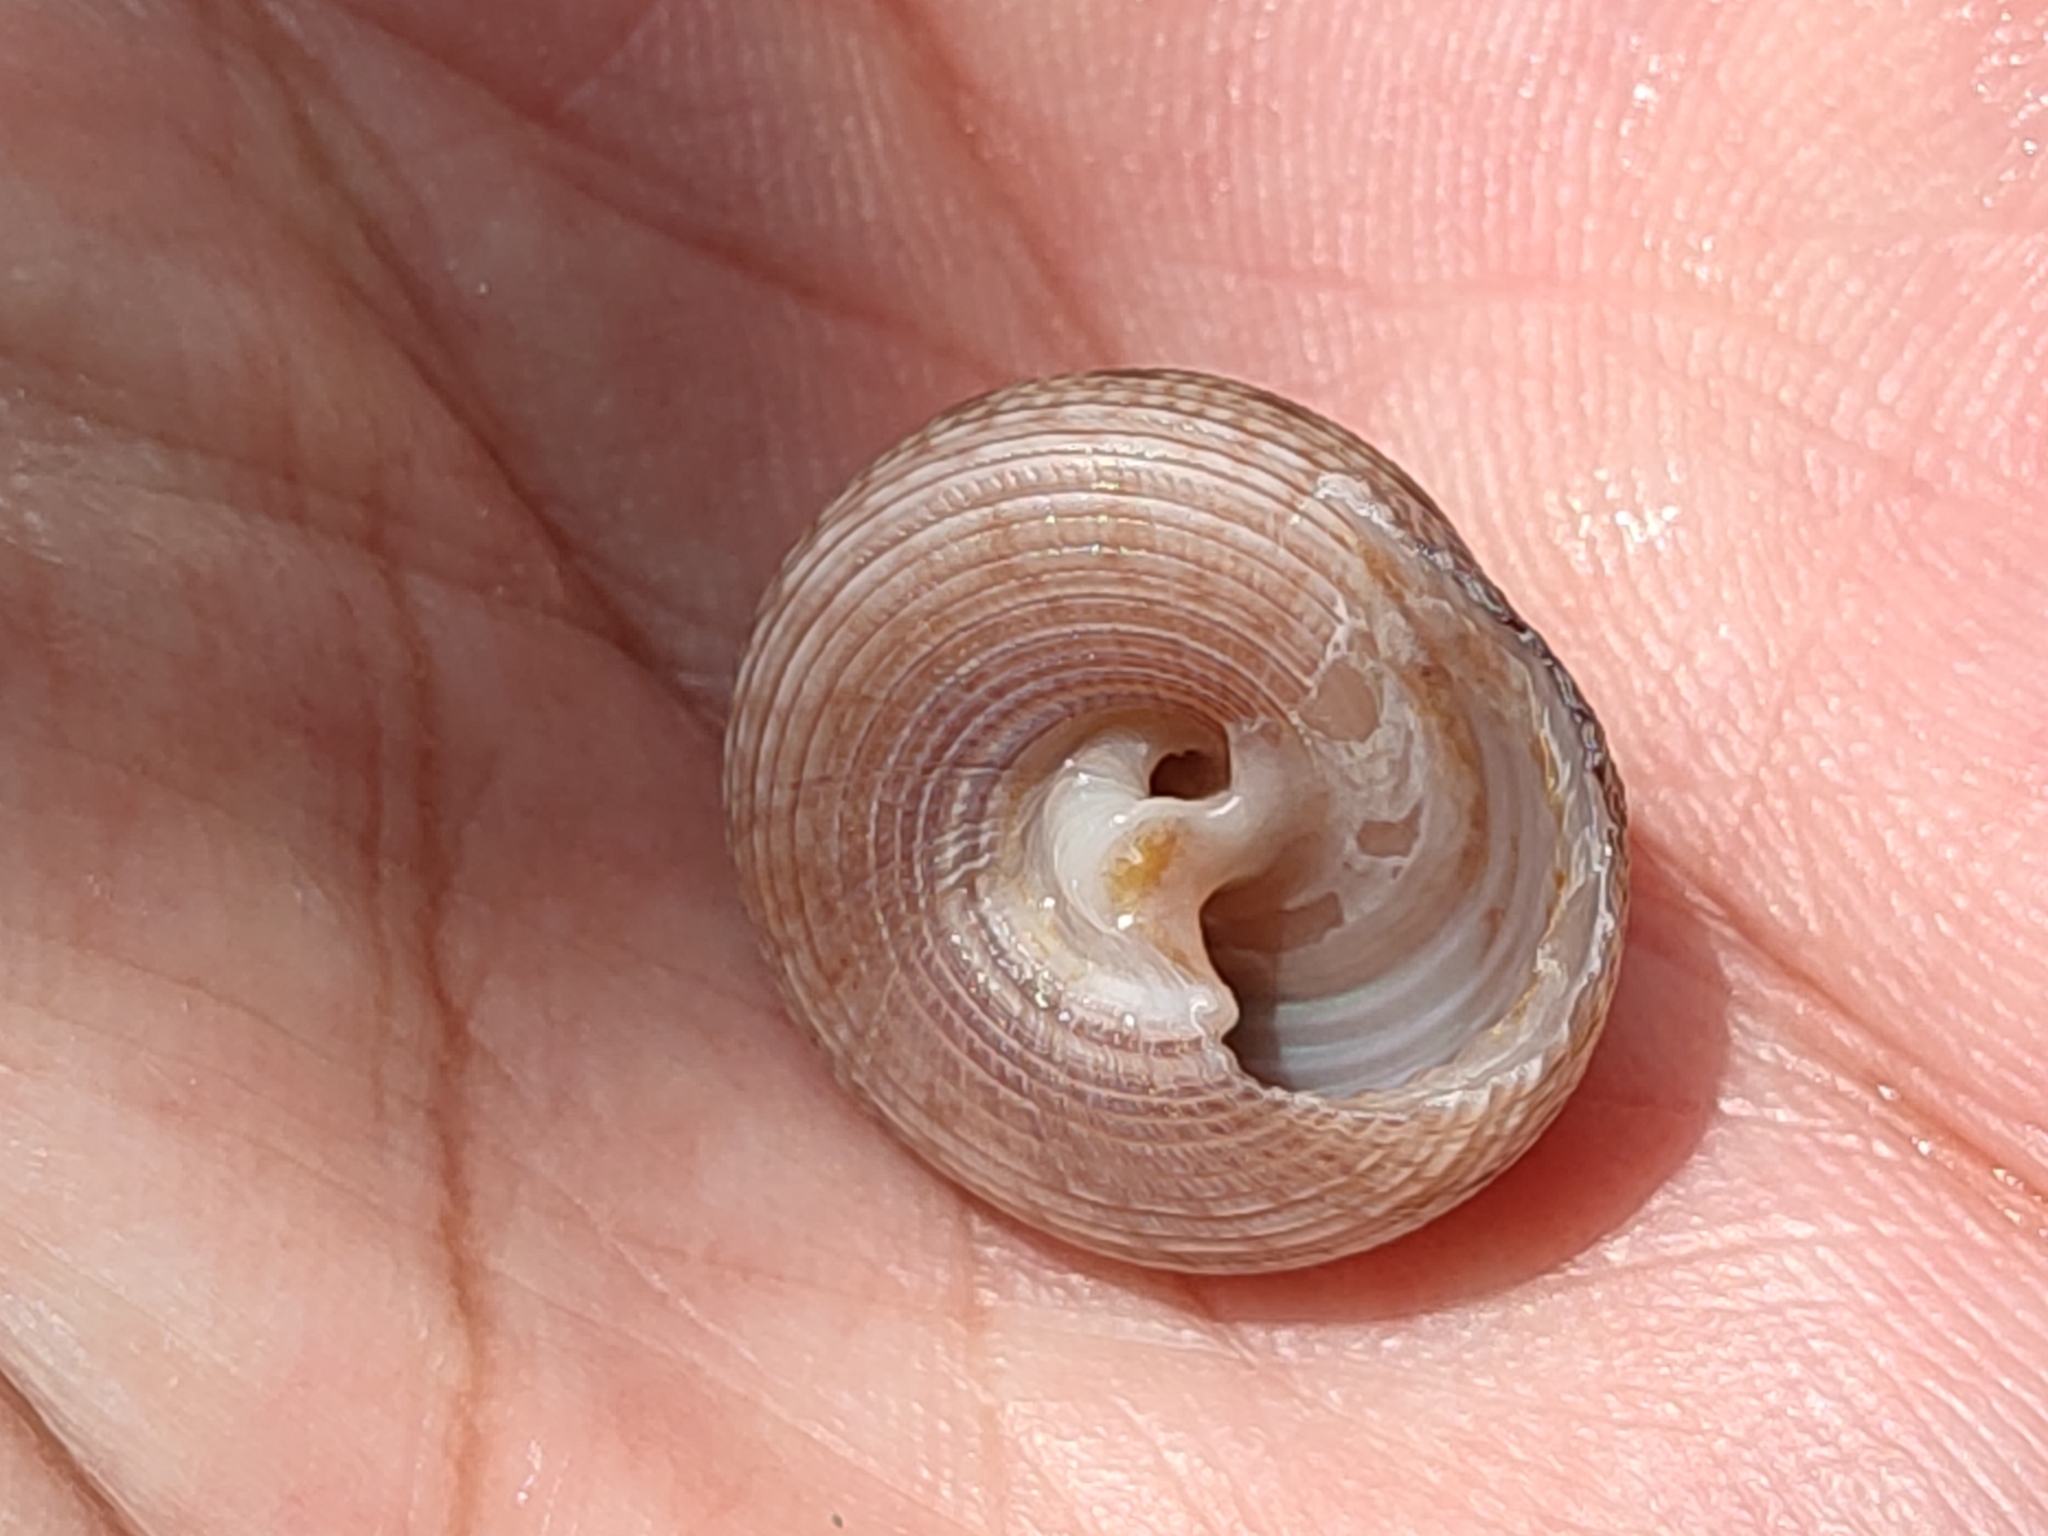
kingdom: Animalia
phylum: Mollusca
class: Gastropoda
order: Trochida
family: Trochidae
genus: Monilea
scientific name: Monilea callifera
